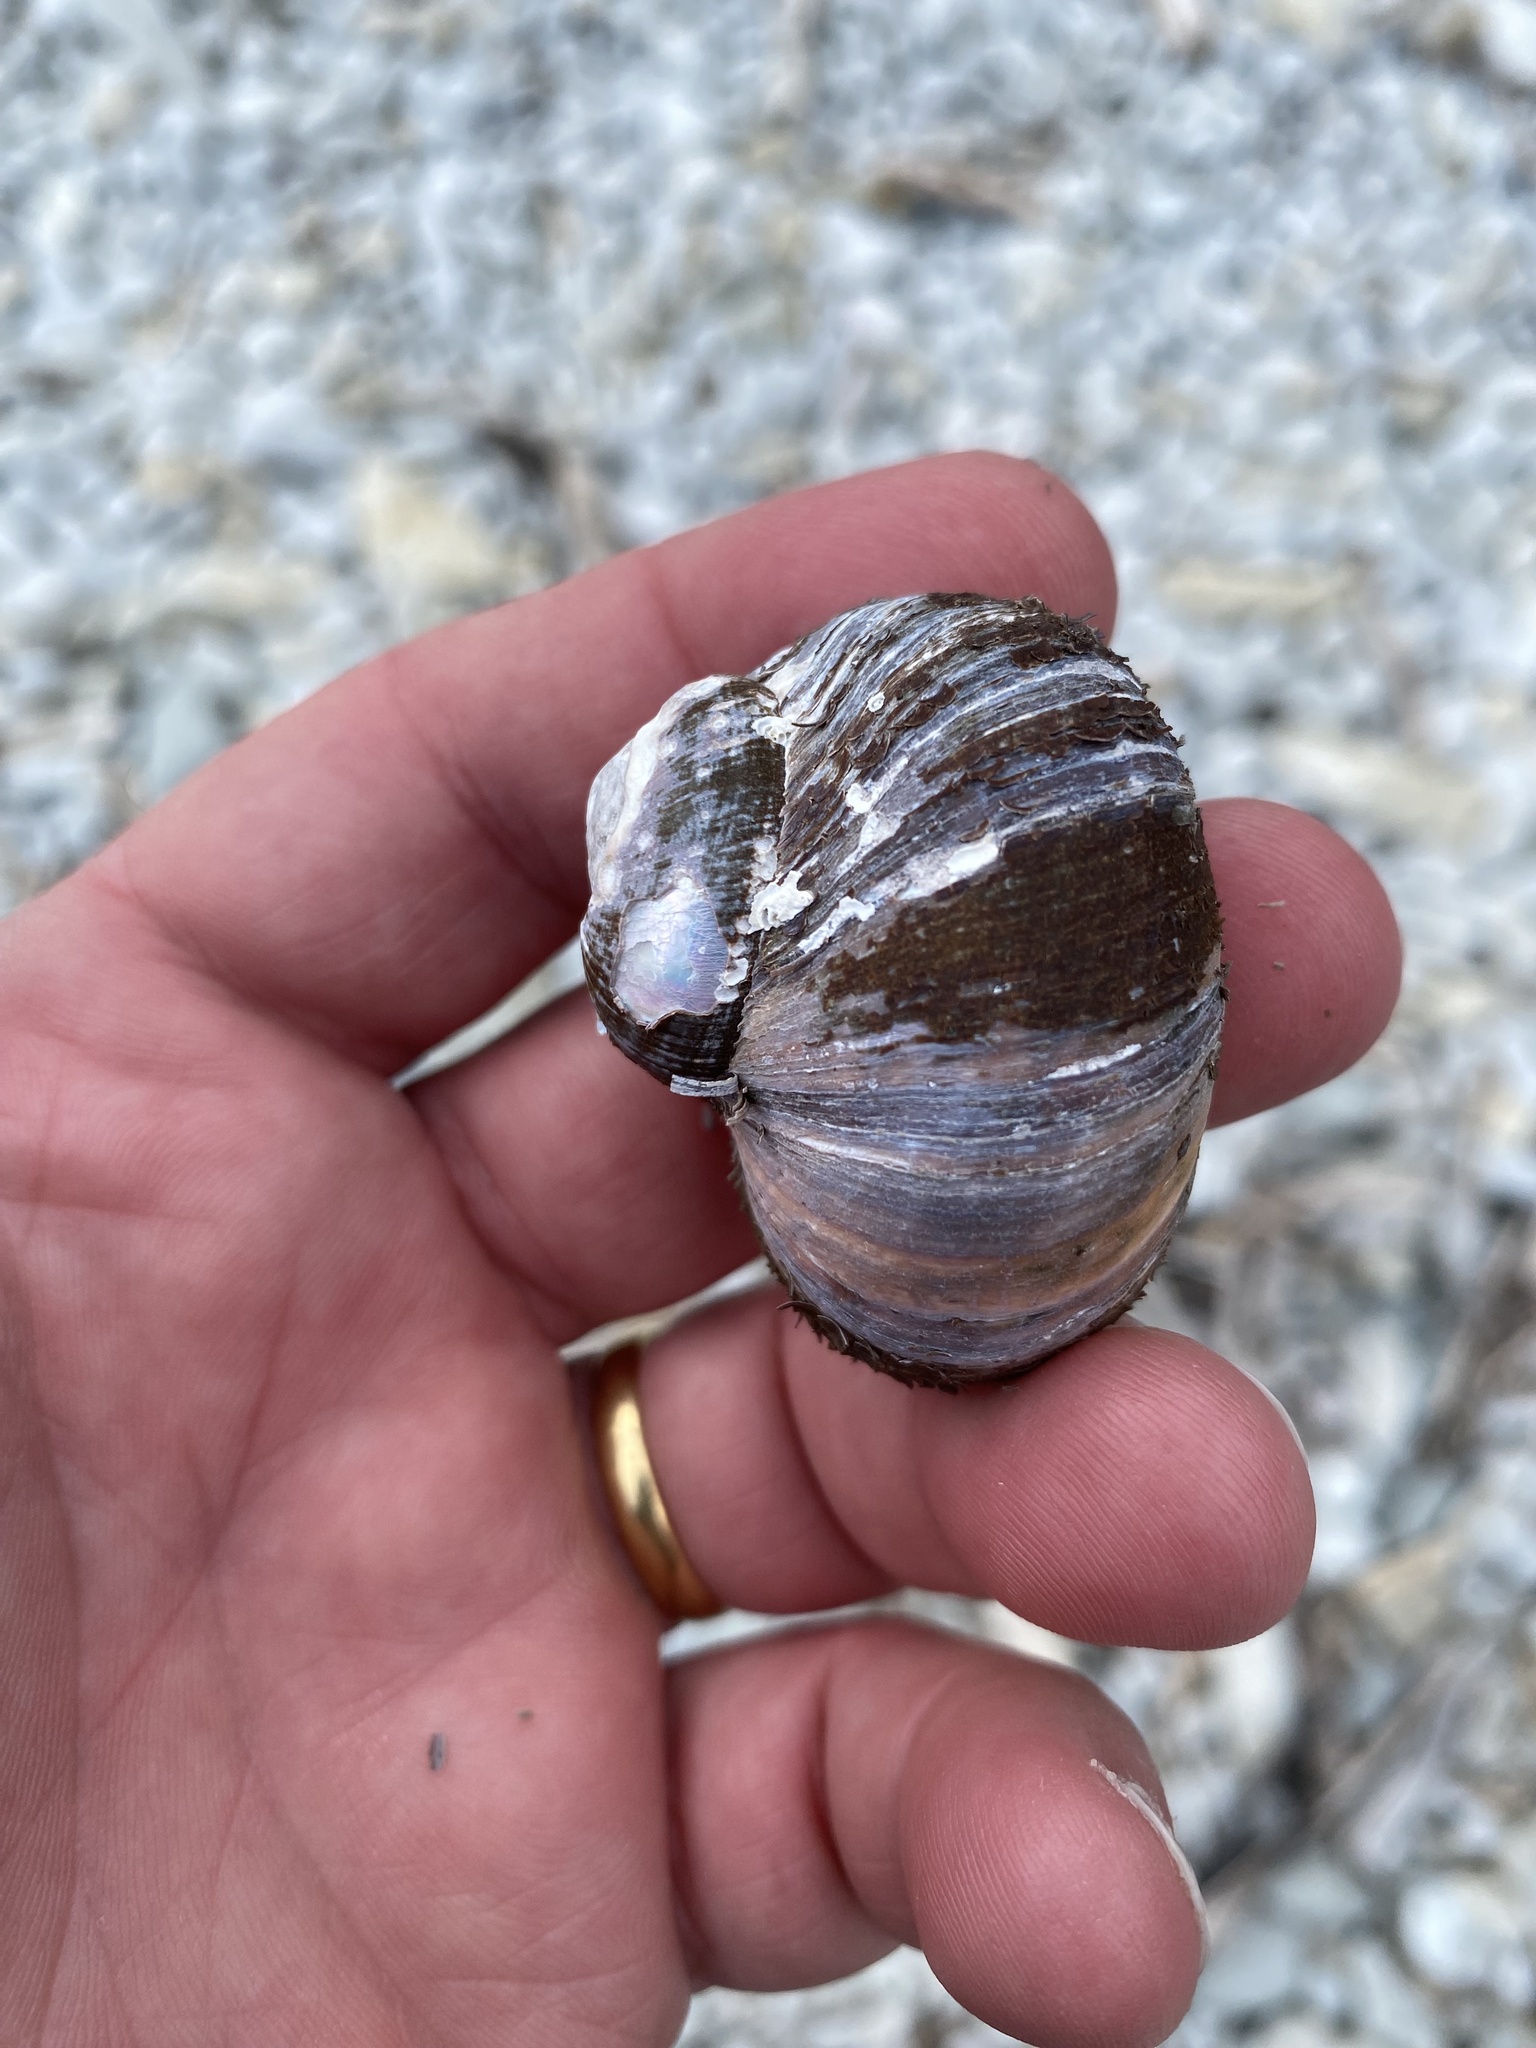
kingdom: Animalia
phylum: Mollusca
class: Gastropoda
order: Trochida
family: Turbinidae
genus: Lunella
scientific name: Lunella smaragda
